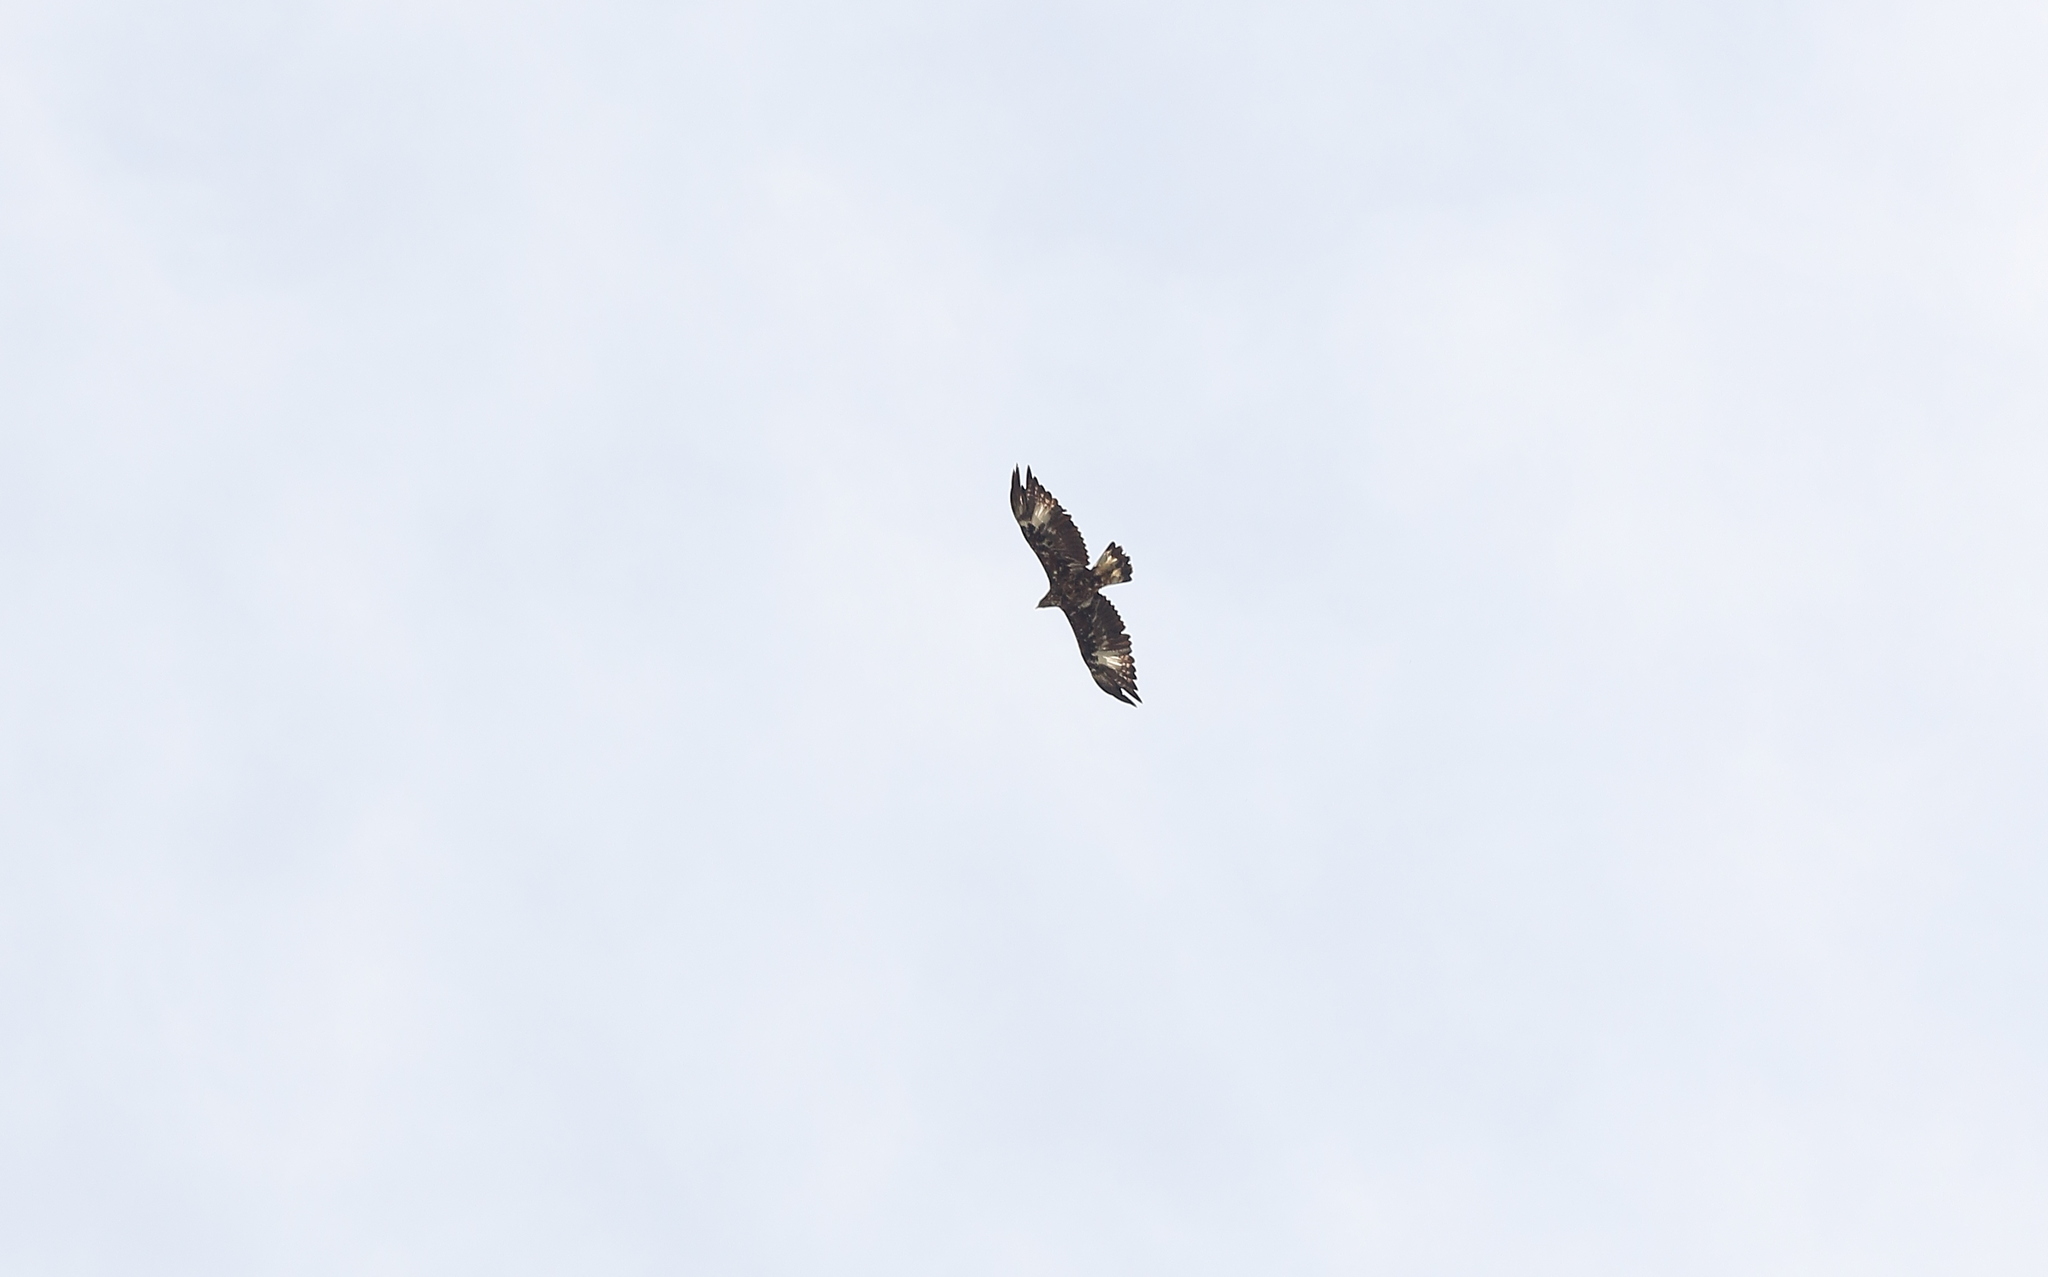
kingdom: Animalia
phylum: Chordata
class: Aves
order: Accipitriformes
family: Accipitridae
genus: Aquila
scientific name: Aquila chrysaetos
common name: Golden eagle
